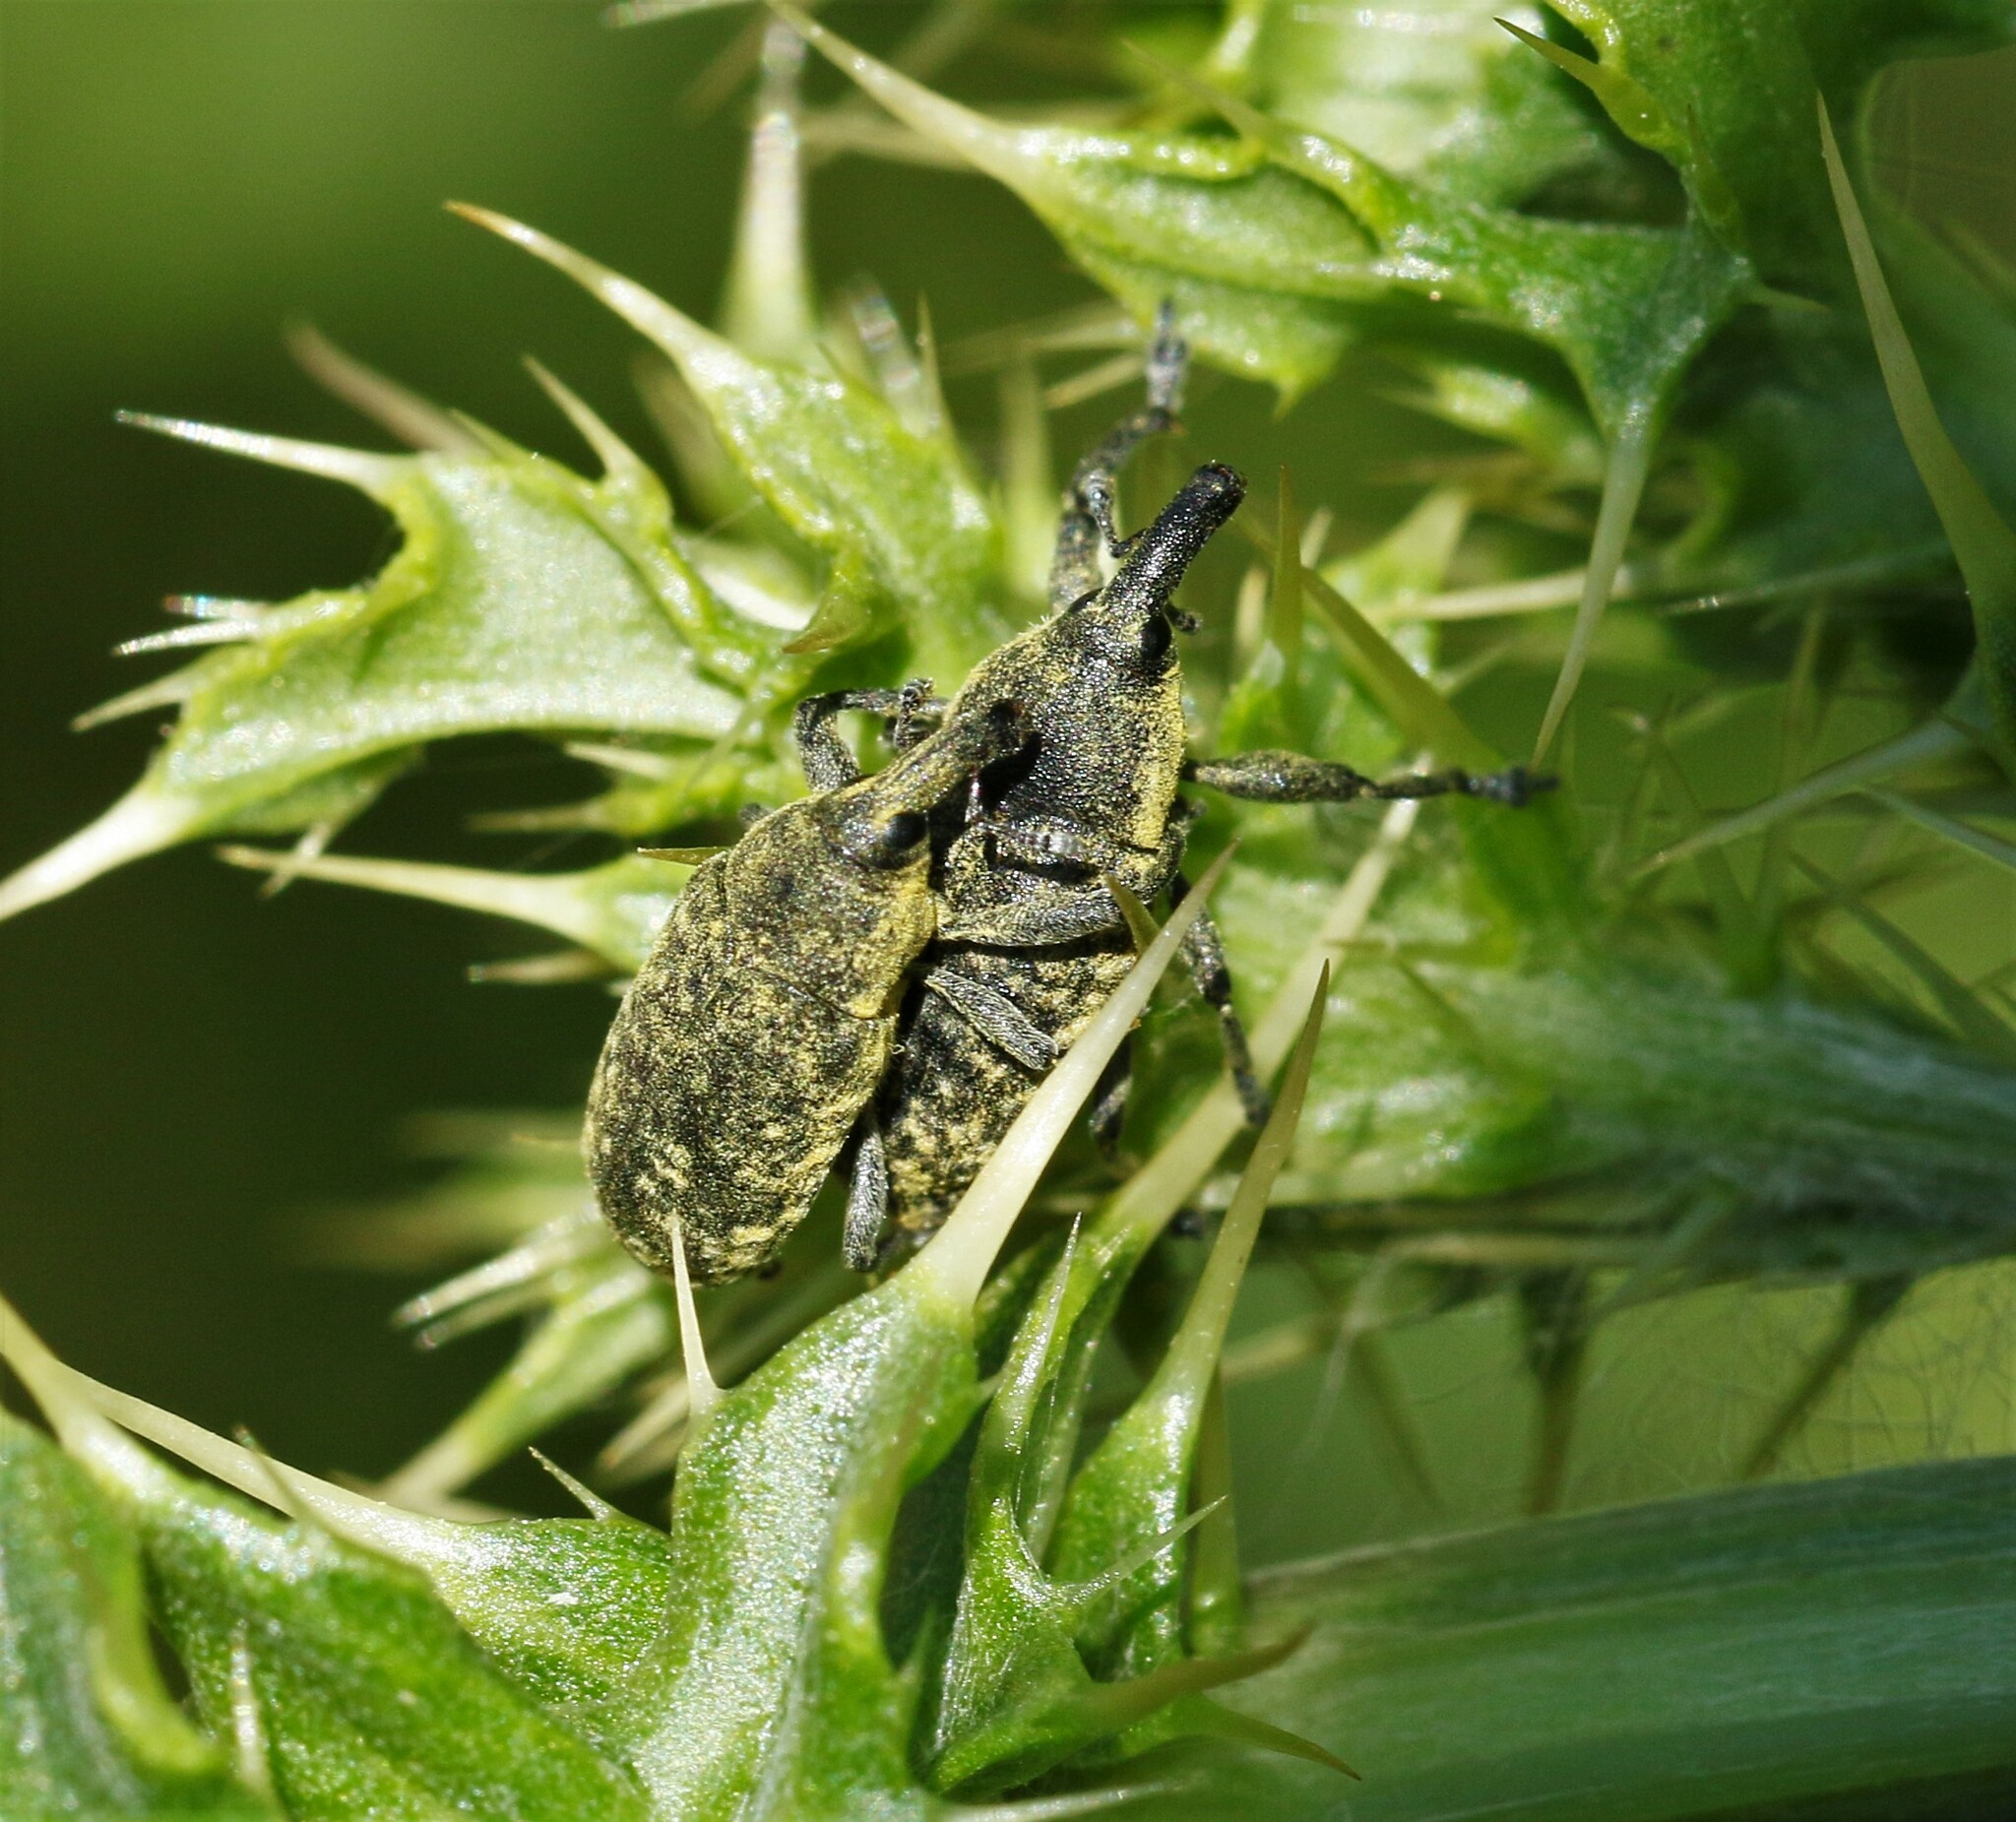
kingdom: Animalia
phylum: Arthropoda
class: Insecta
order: Coleoptera
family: Curculionidae
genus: Larinus
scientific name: Larinus carlinae
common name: Weevil
